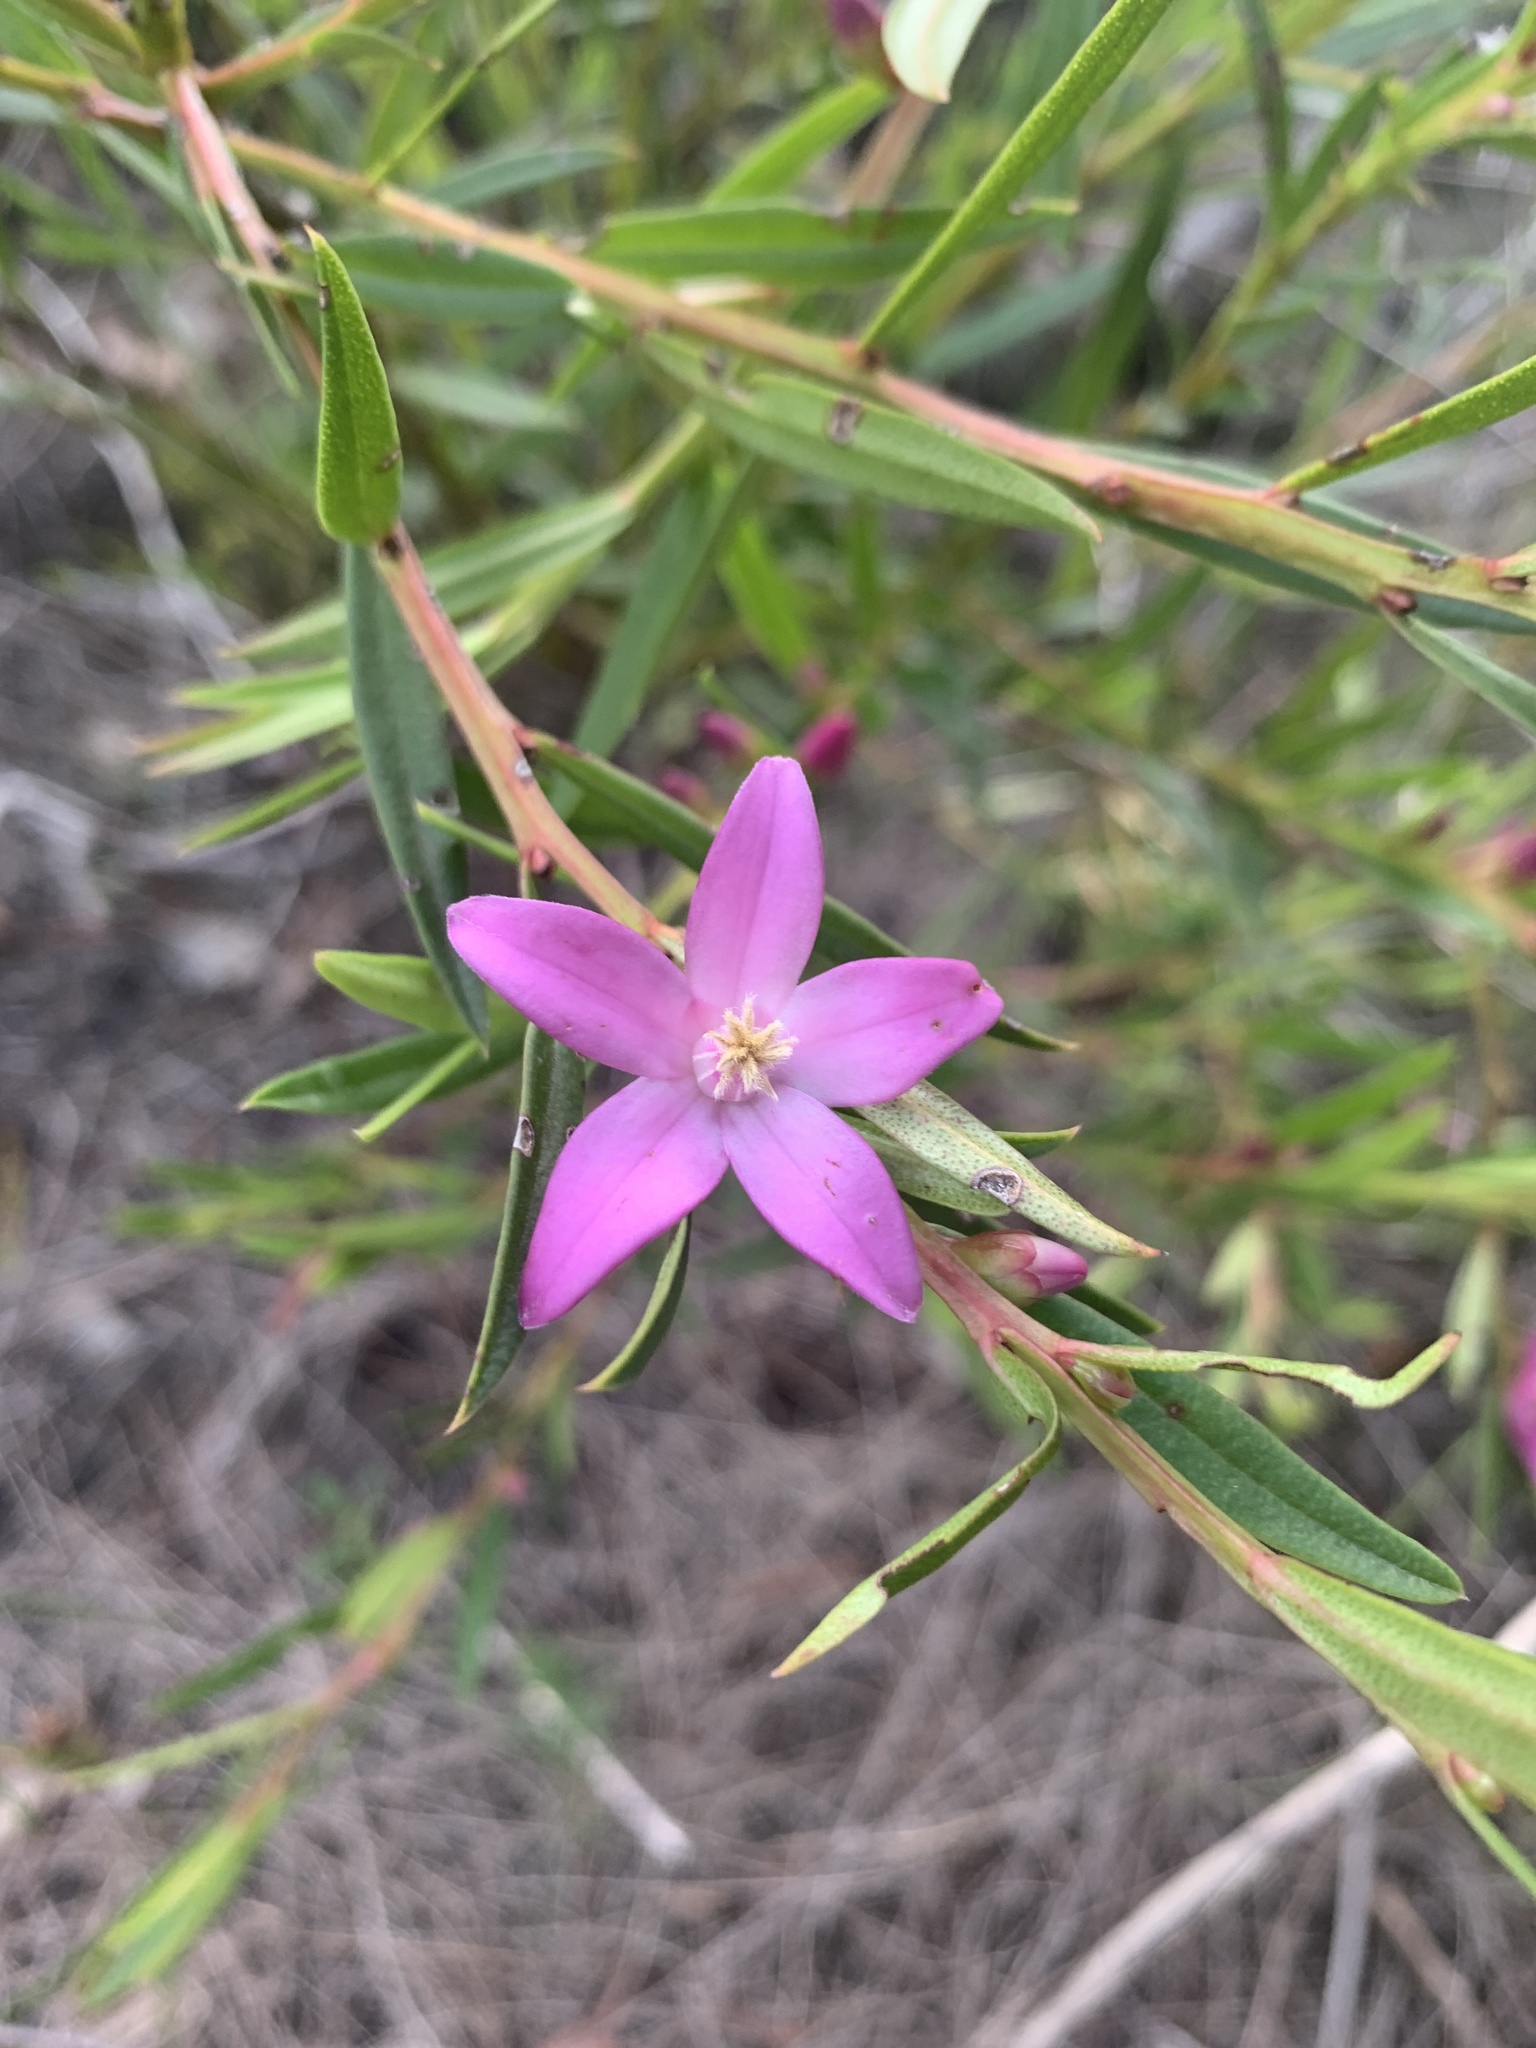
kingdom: Plantae
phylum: Tracheophyta
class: Magnoliopsida
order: Sapindales
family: Rutaceae
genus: Crowea
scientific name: Crowea saligna
